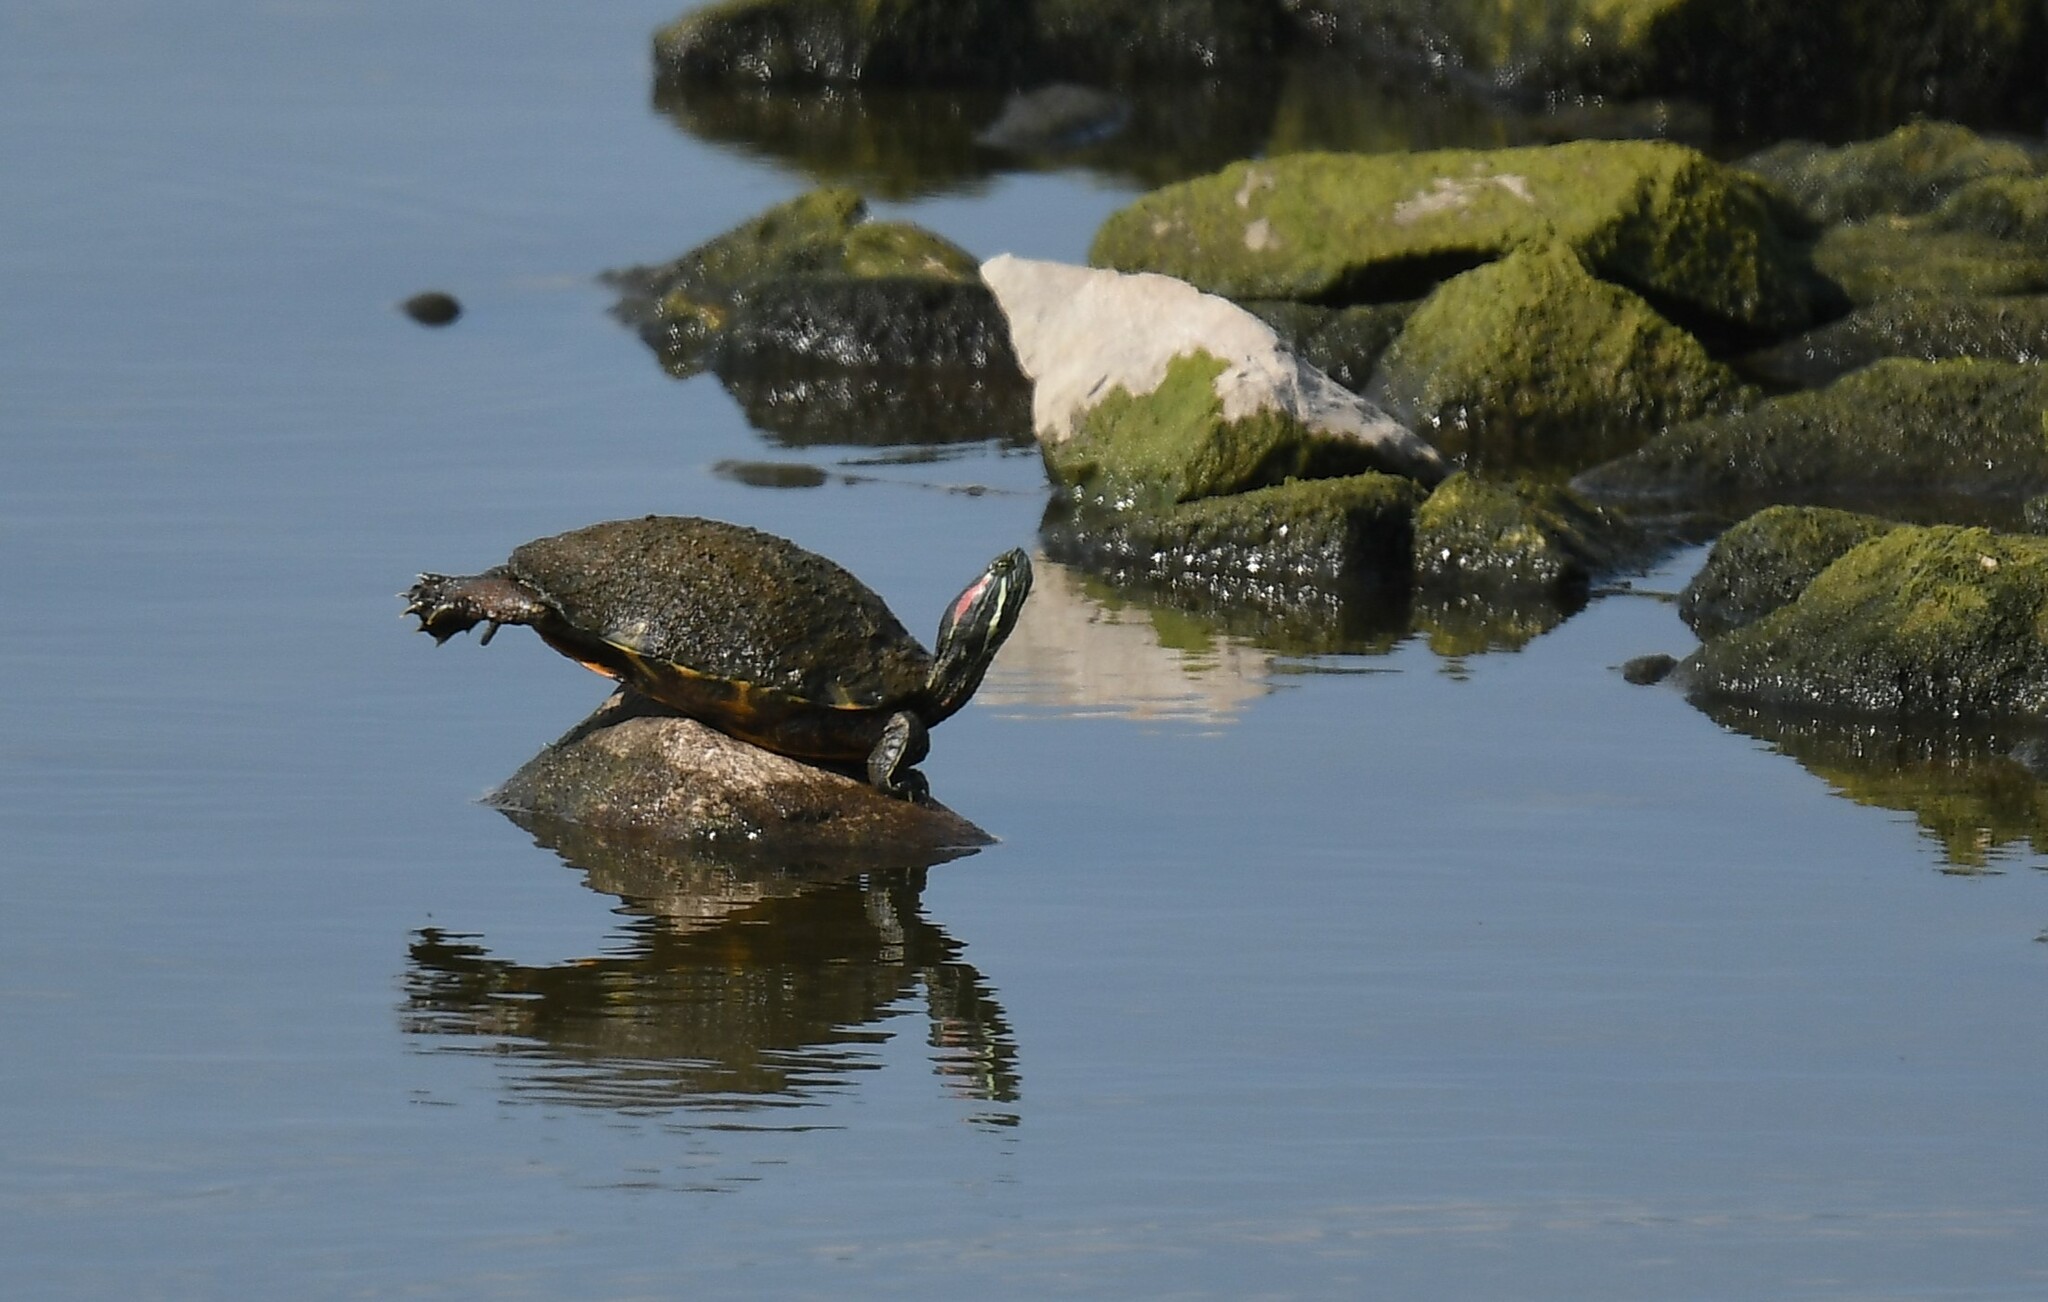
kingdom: Animalia
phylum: Chordata
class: Testudines
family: Emydidae
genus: Trachemys
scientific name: Trachemys scripta
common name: Slider
